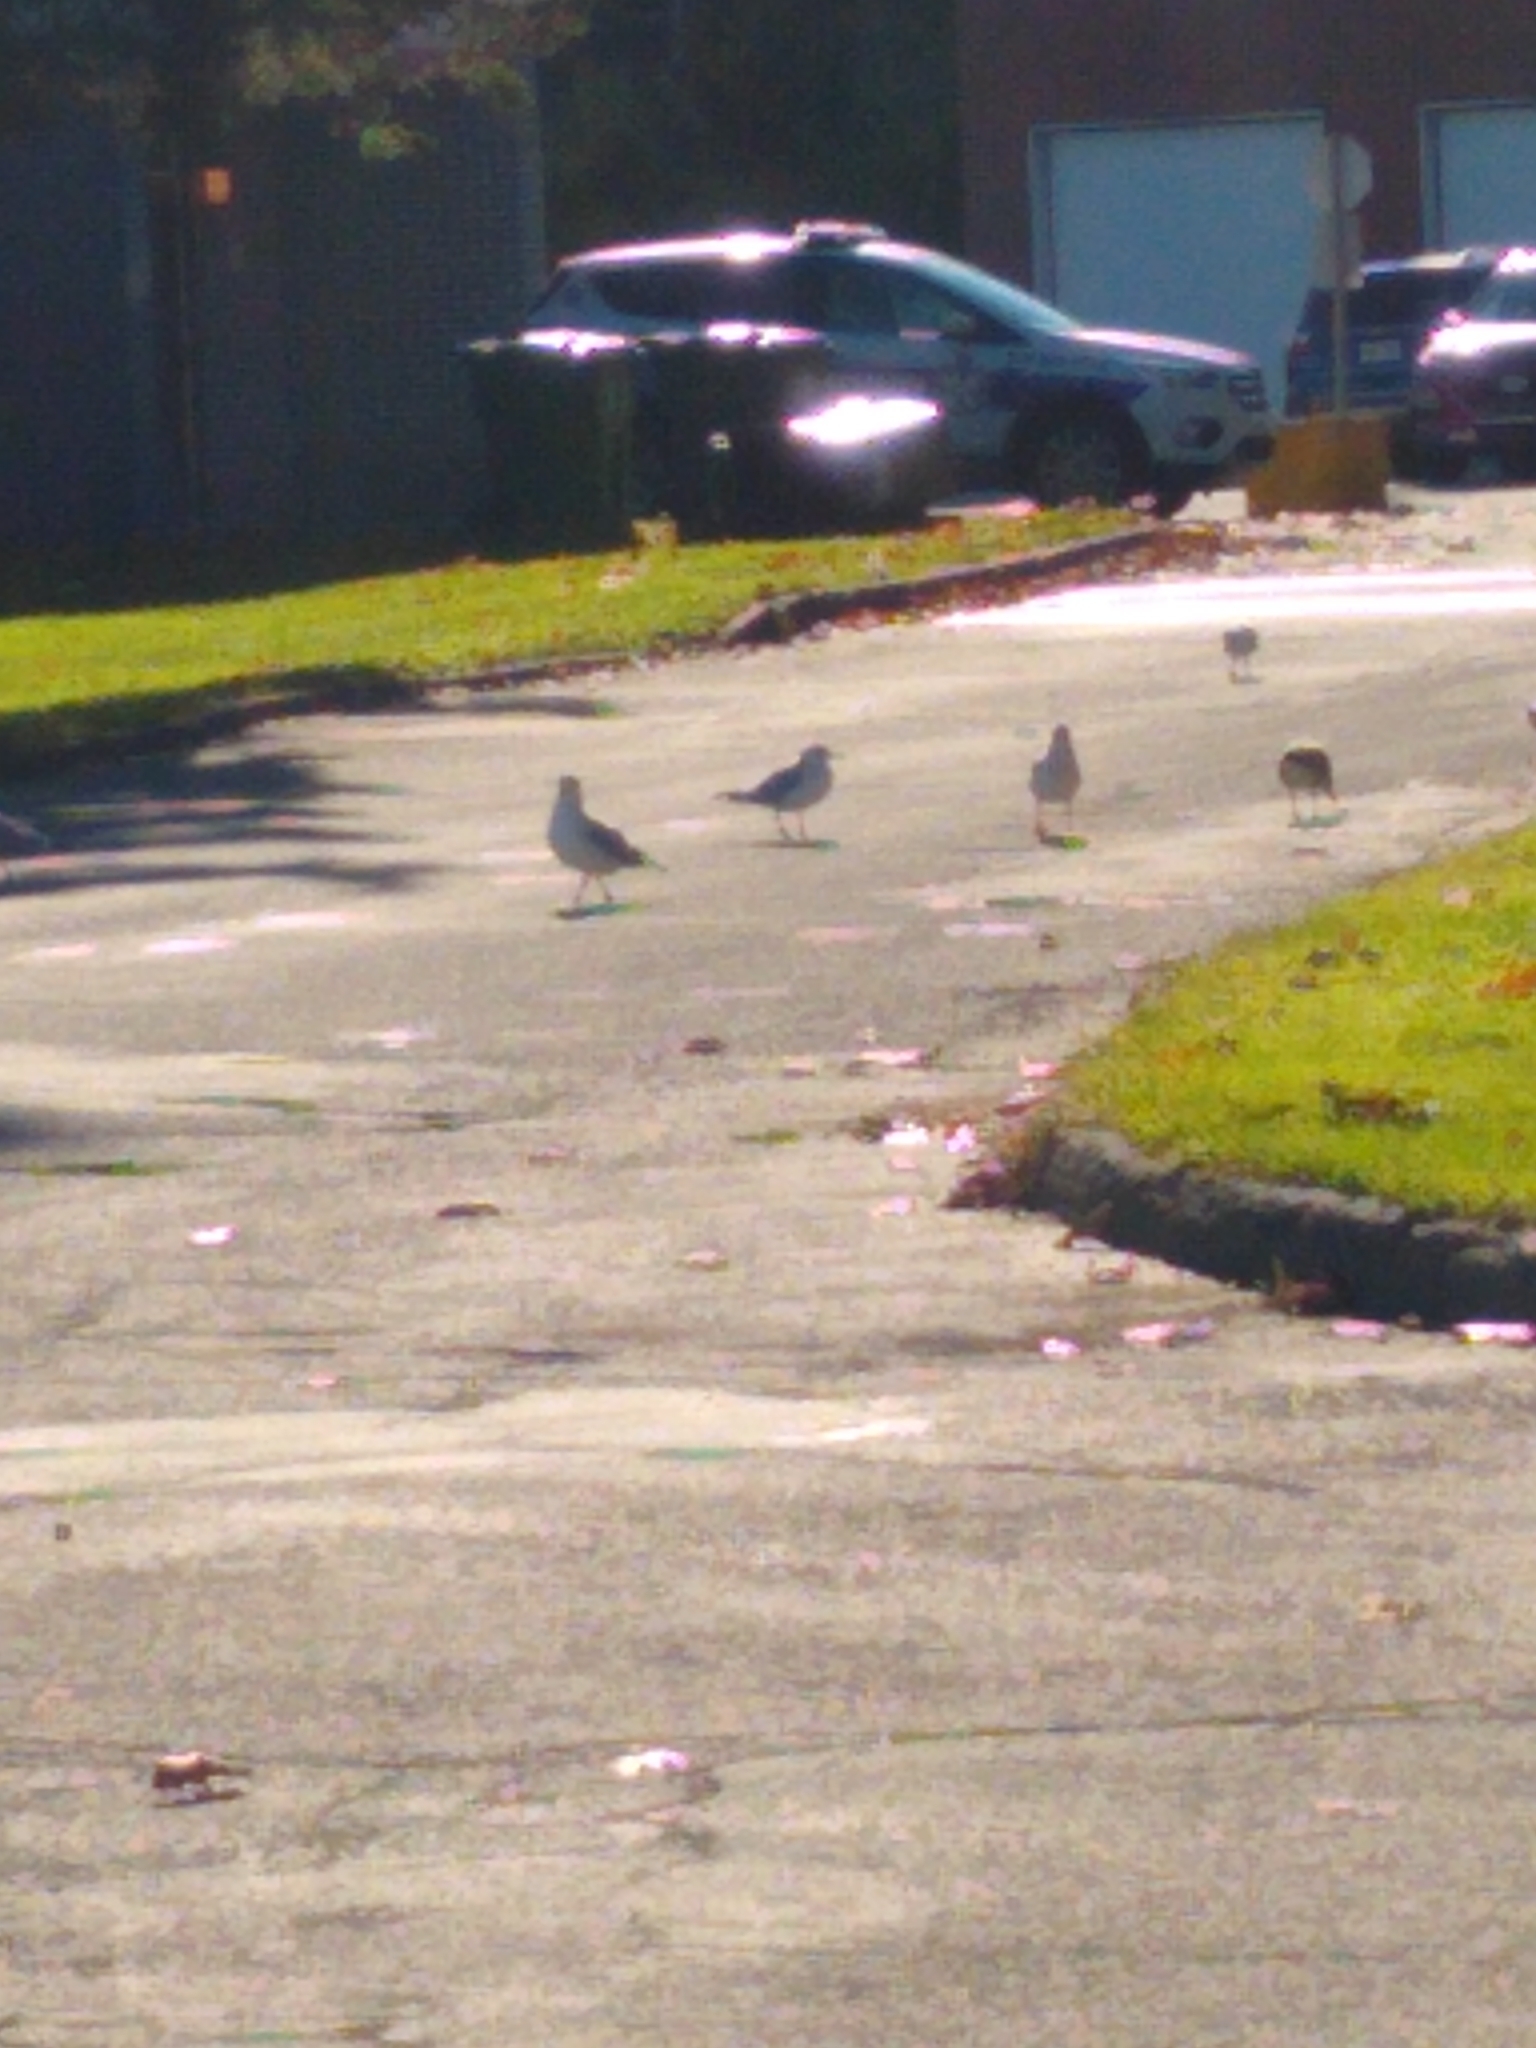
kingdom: Animalia
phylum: Chordata
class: Aves
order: Charadriiformes
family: Laridae
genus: Larus
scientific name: Larus delawarensis
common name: Ring-billed gull
